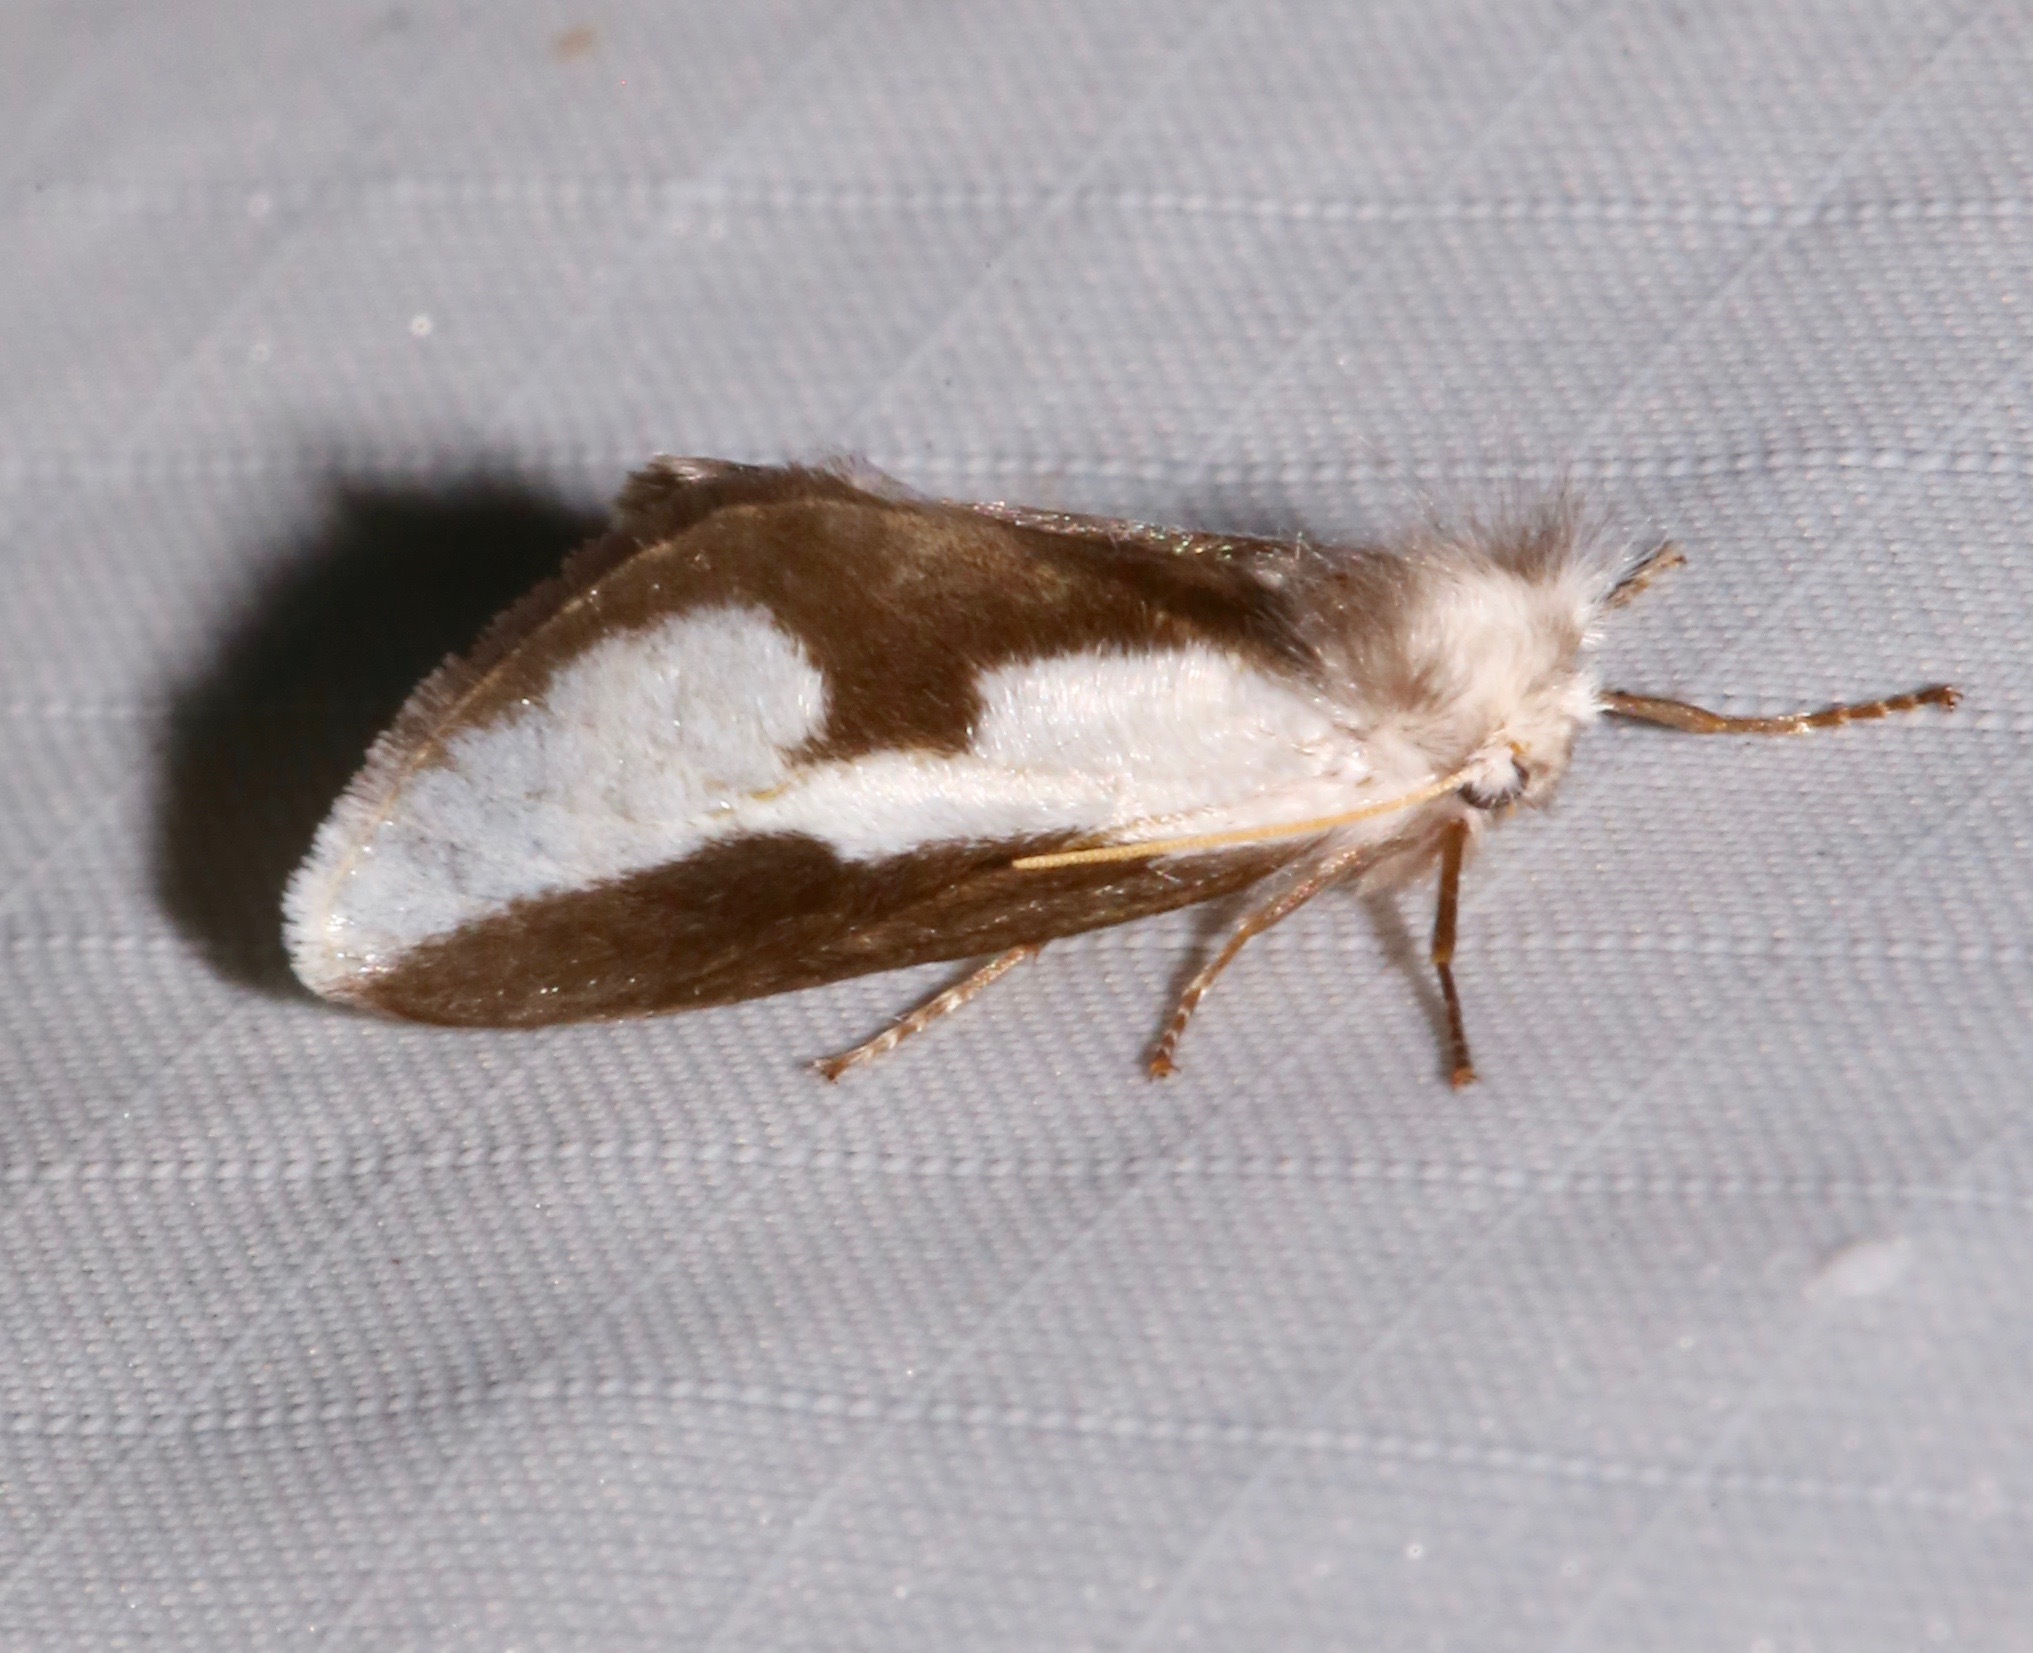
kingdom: Animalia
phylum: Arthropoda
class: Insecta
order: Lepidoptera
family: Megalopygidae
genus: Norape
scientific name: Norape tener
